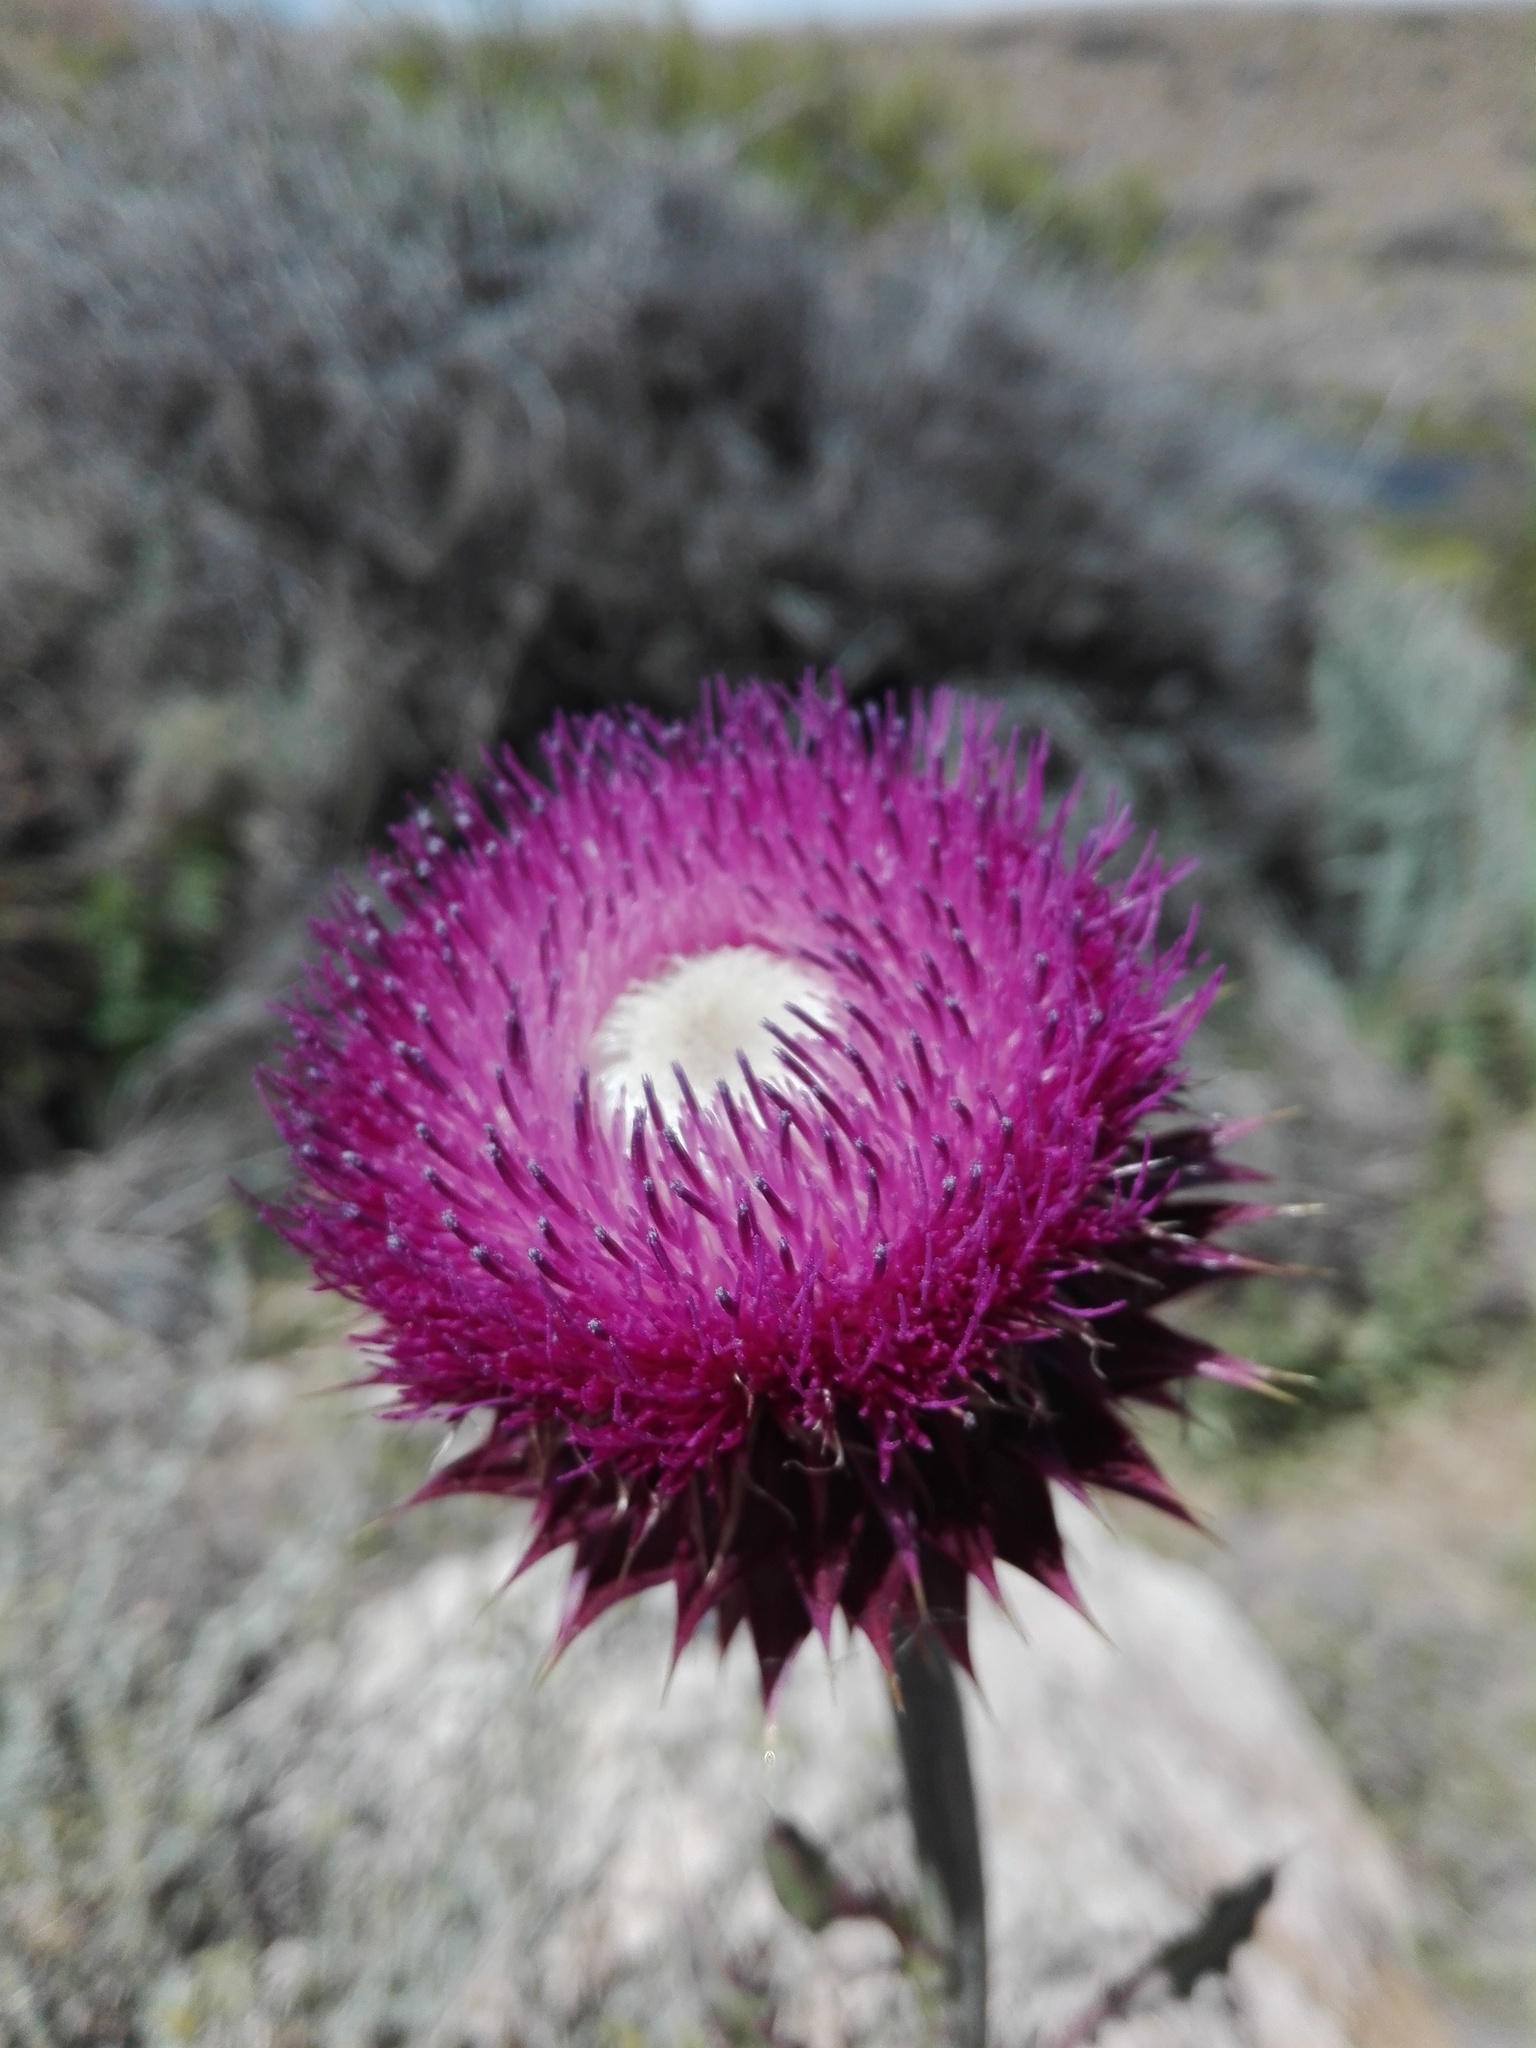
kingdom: Plantae
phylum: Tracheophyta
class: Magnoliopsida
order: Asterales
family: Asteraceae
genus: Carduus
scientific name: Carduus nutans
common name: Musk thistle
